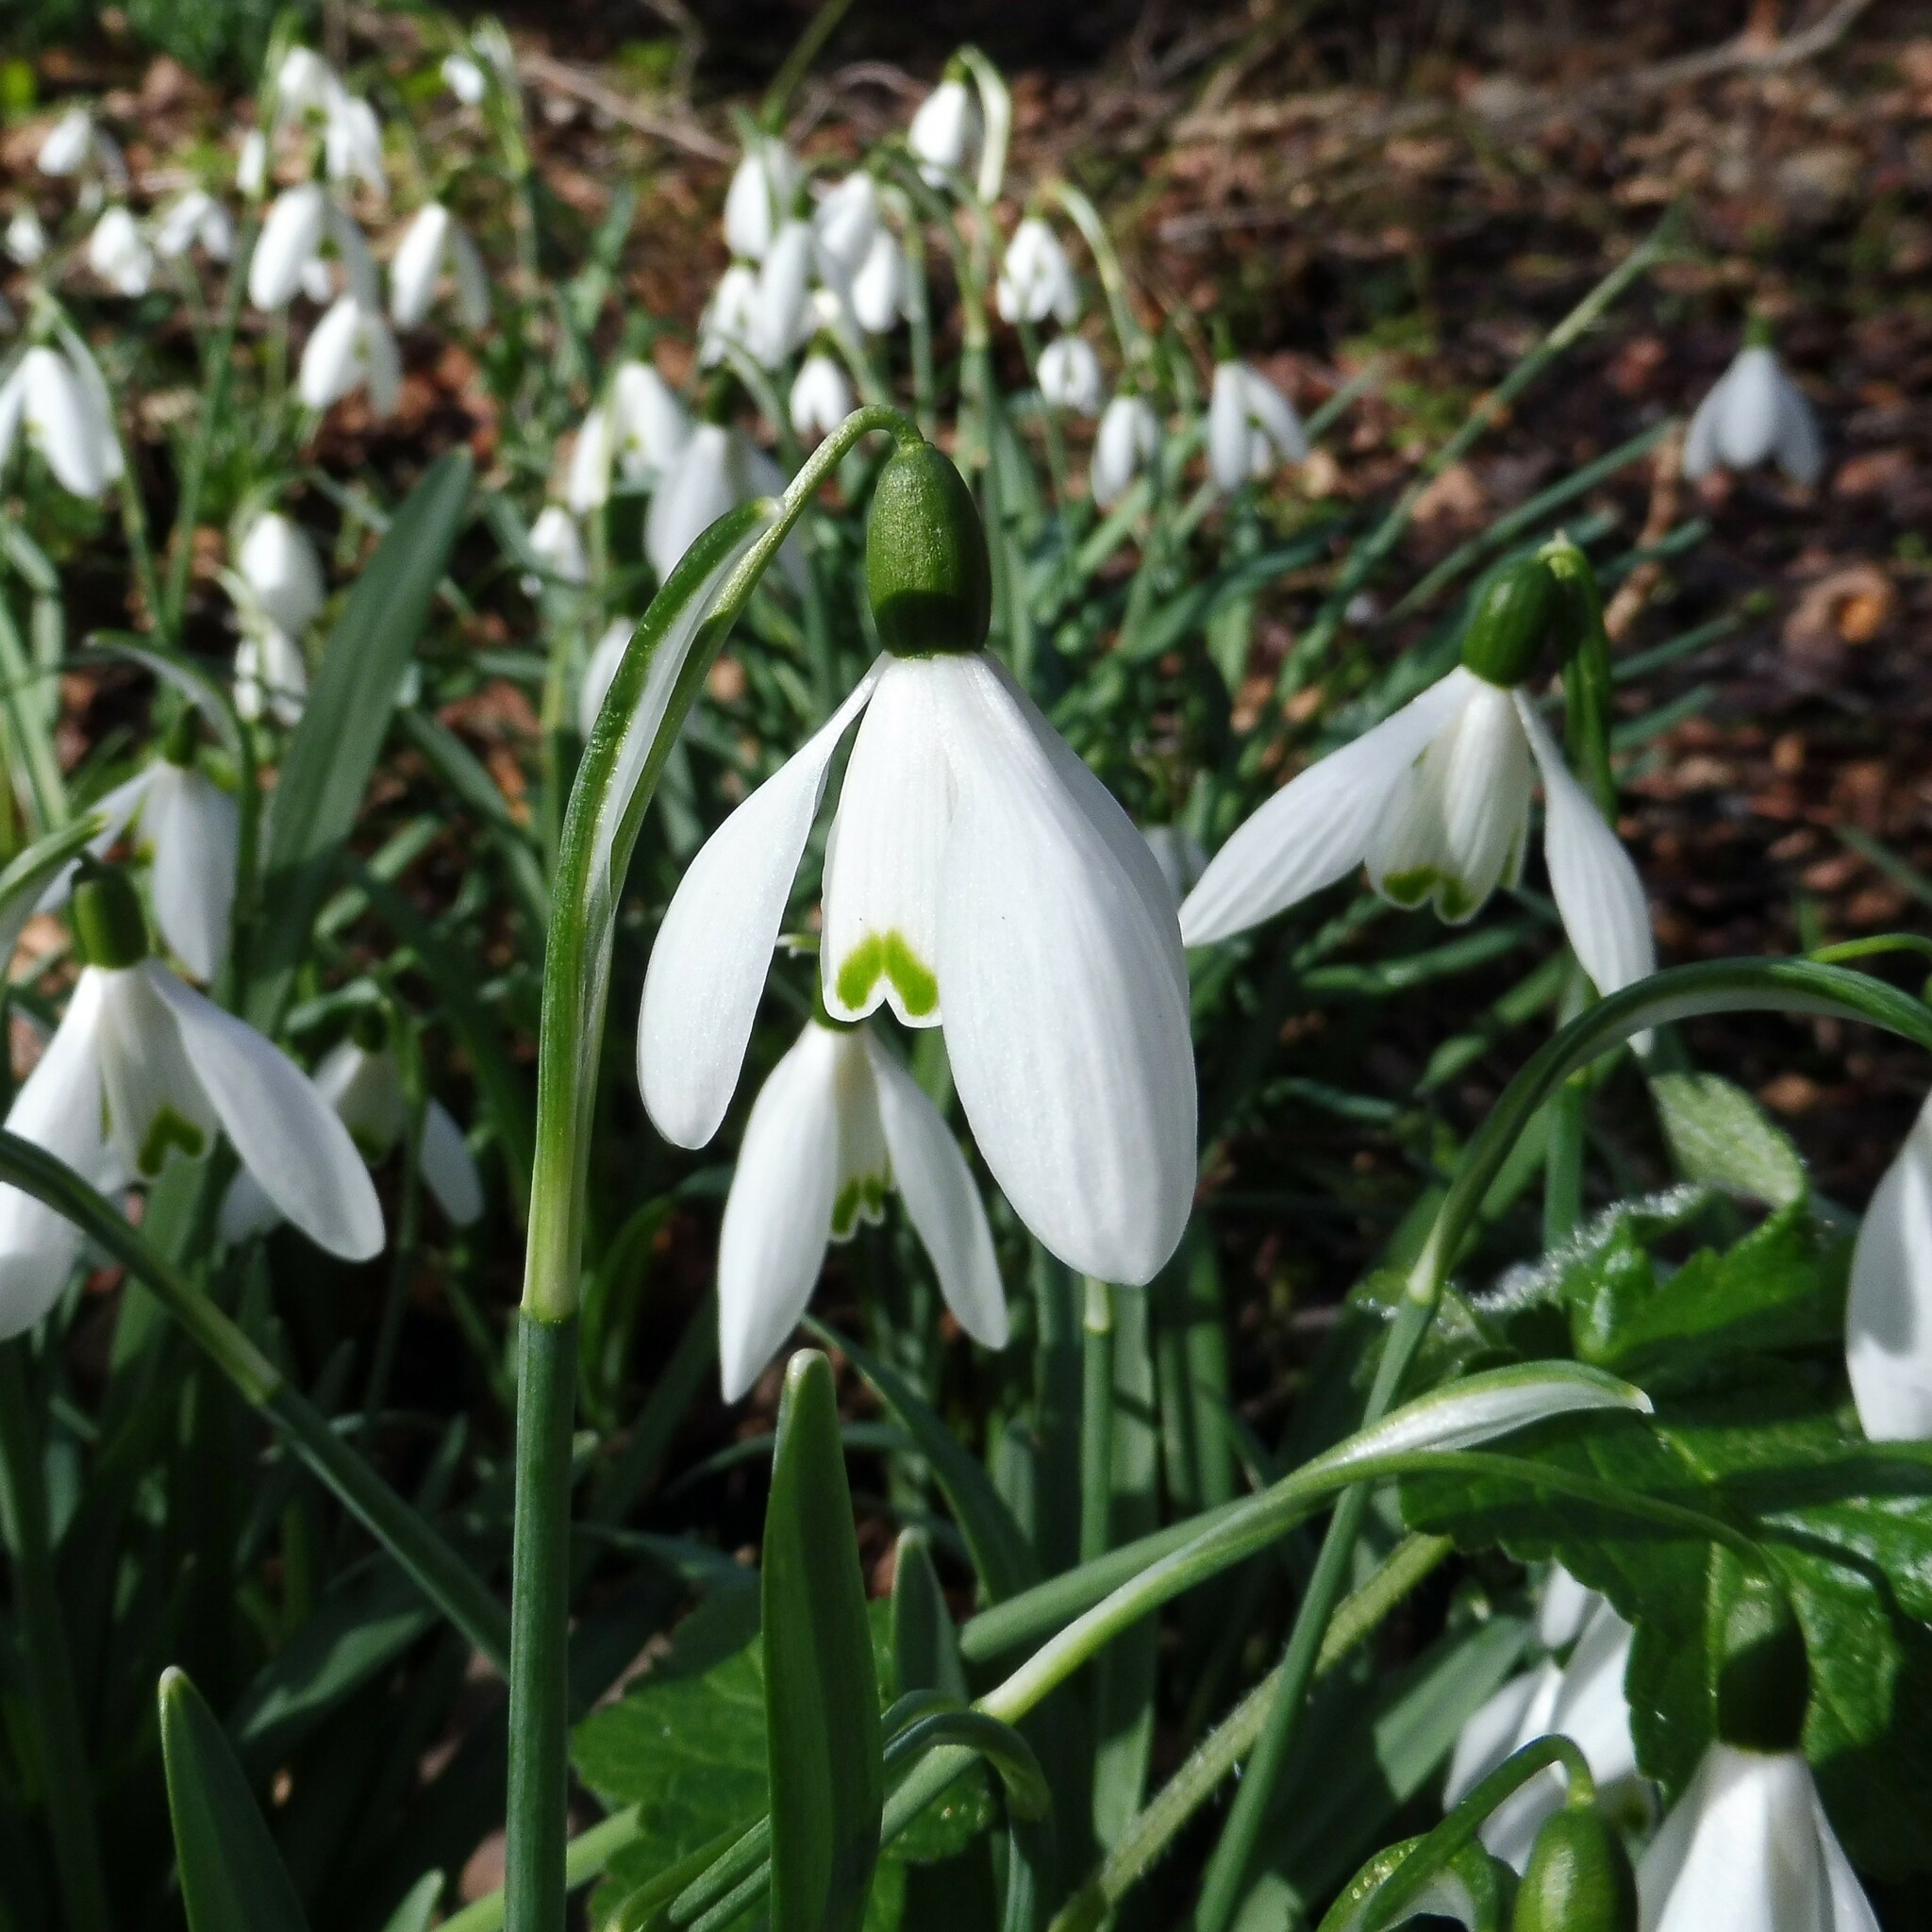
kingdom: Plantae
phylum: Tracheophyta
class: Liliopsida
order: Asparagales
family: Amaryllidaceae
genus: Galanthus
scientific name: Galanthus nivalis
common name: Snowdrop
